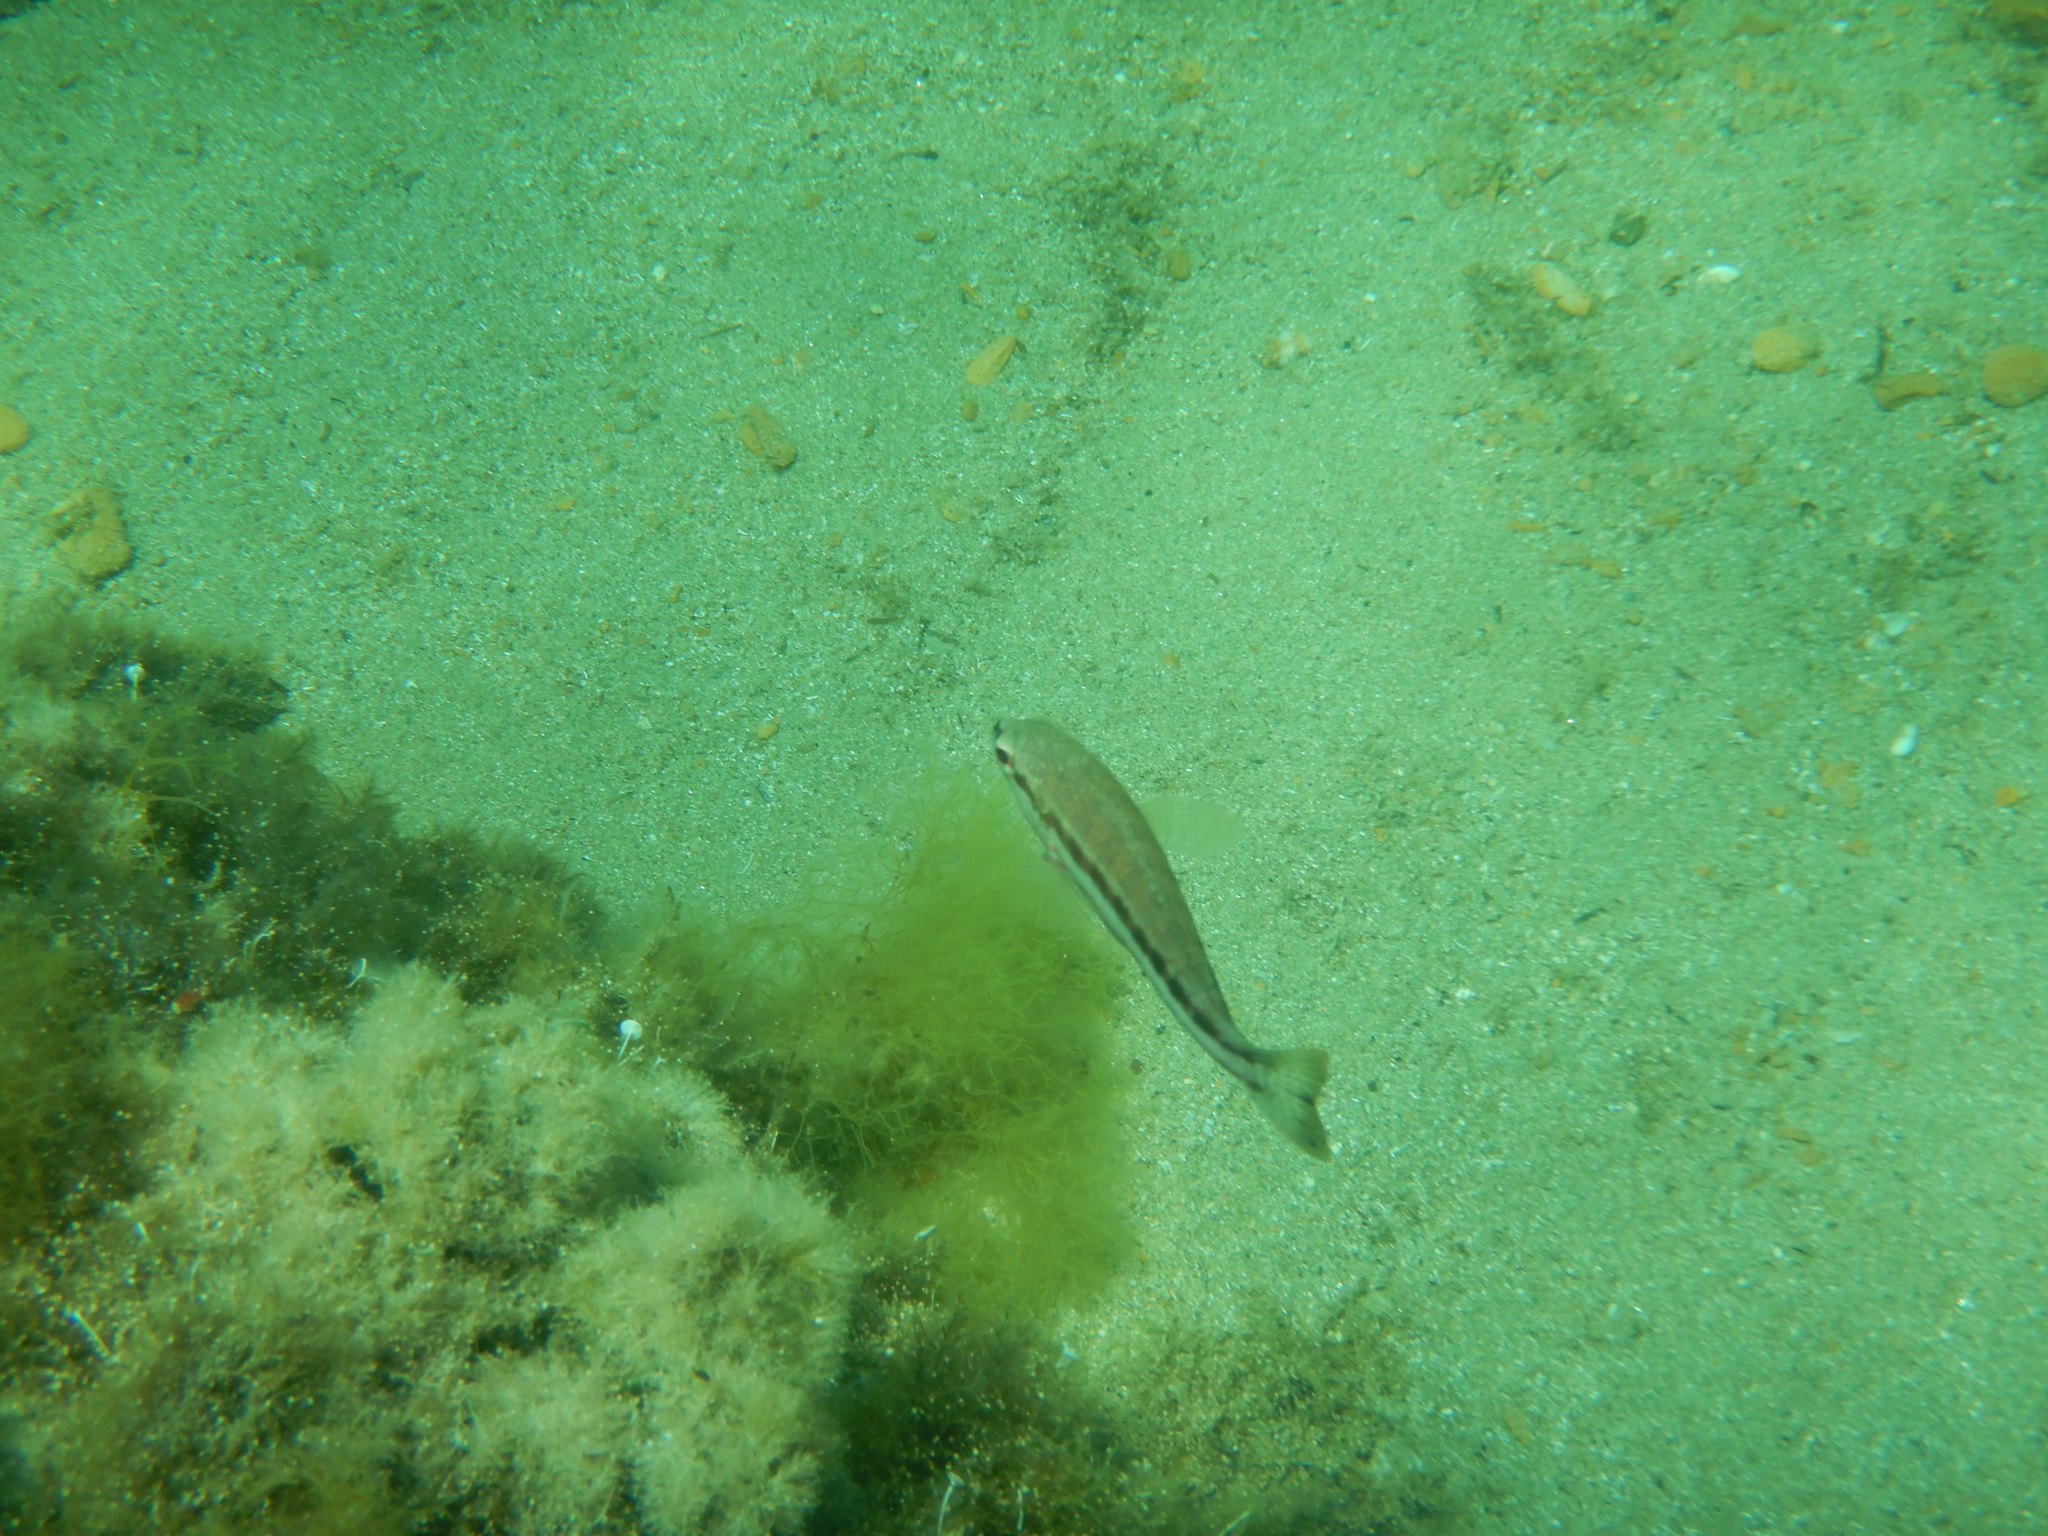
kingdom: Animalia
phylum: Chordata
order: Perciformes
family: Serranidae
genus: Serranus
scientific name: Serranus cabrilla
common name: Comber
